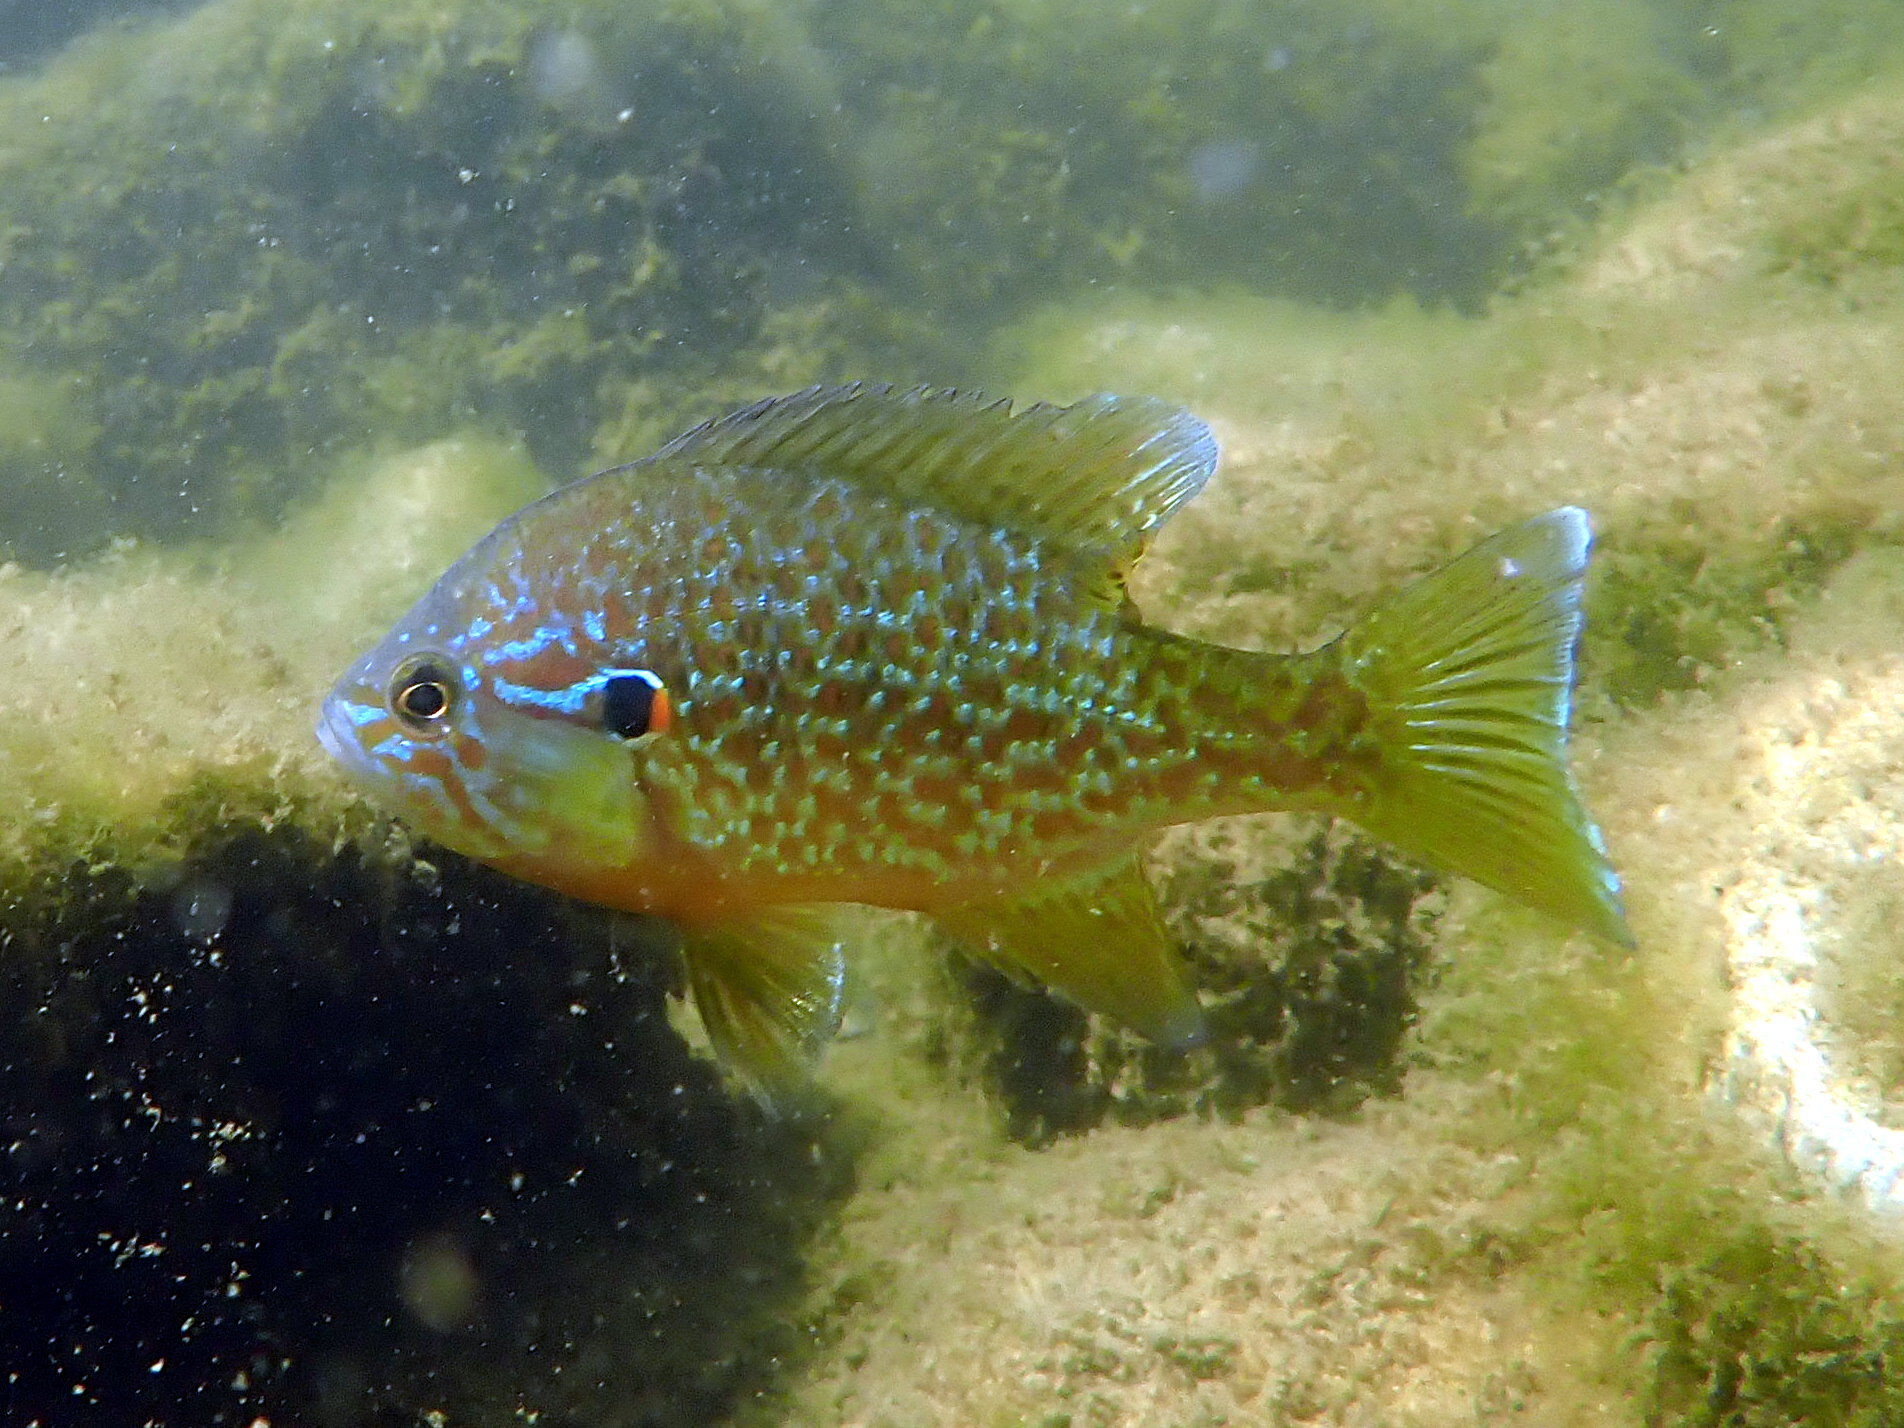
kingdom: Animalia
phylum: Chordata
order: Perciformes
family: Centrarchidae
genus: Lepomis
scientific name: Lepomis gibbosus
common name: Pumpkinseed
